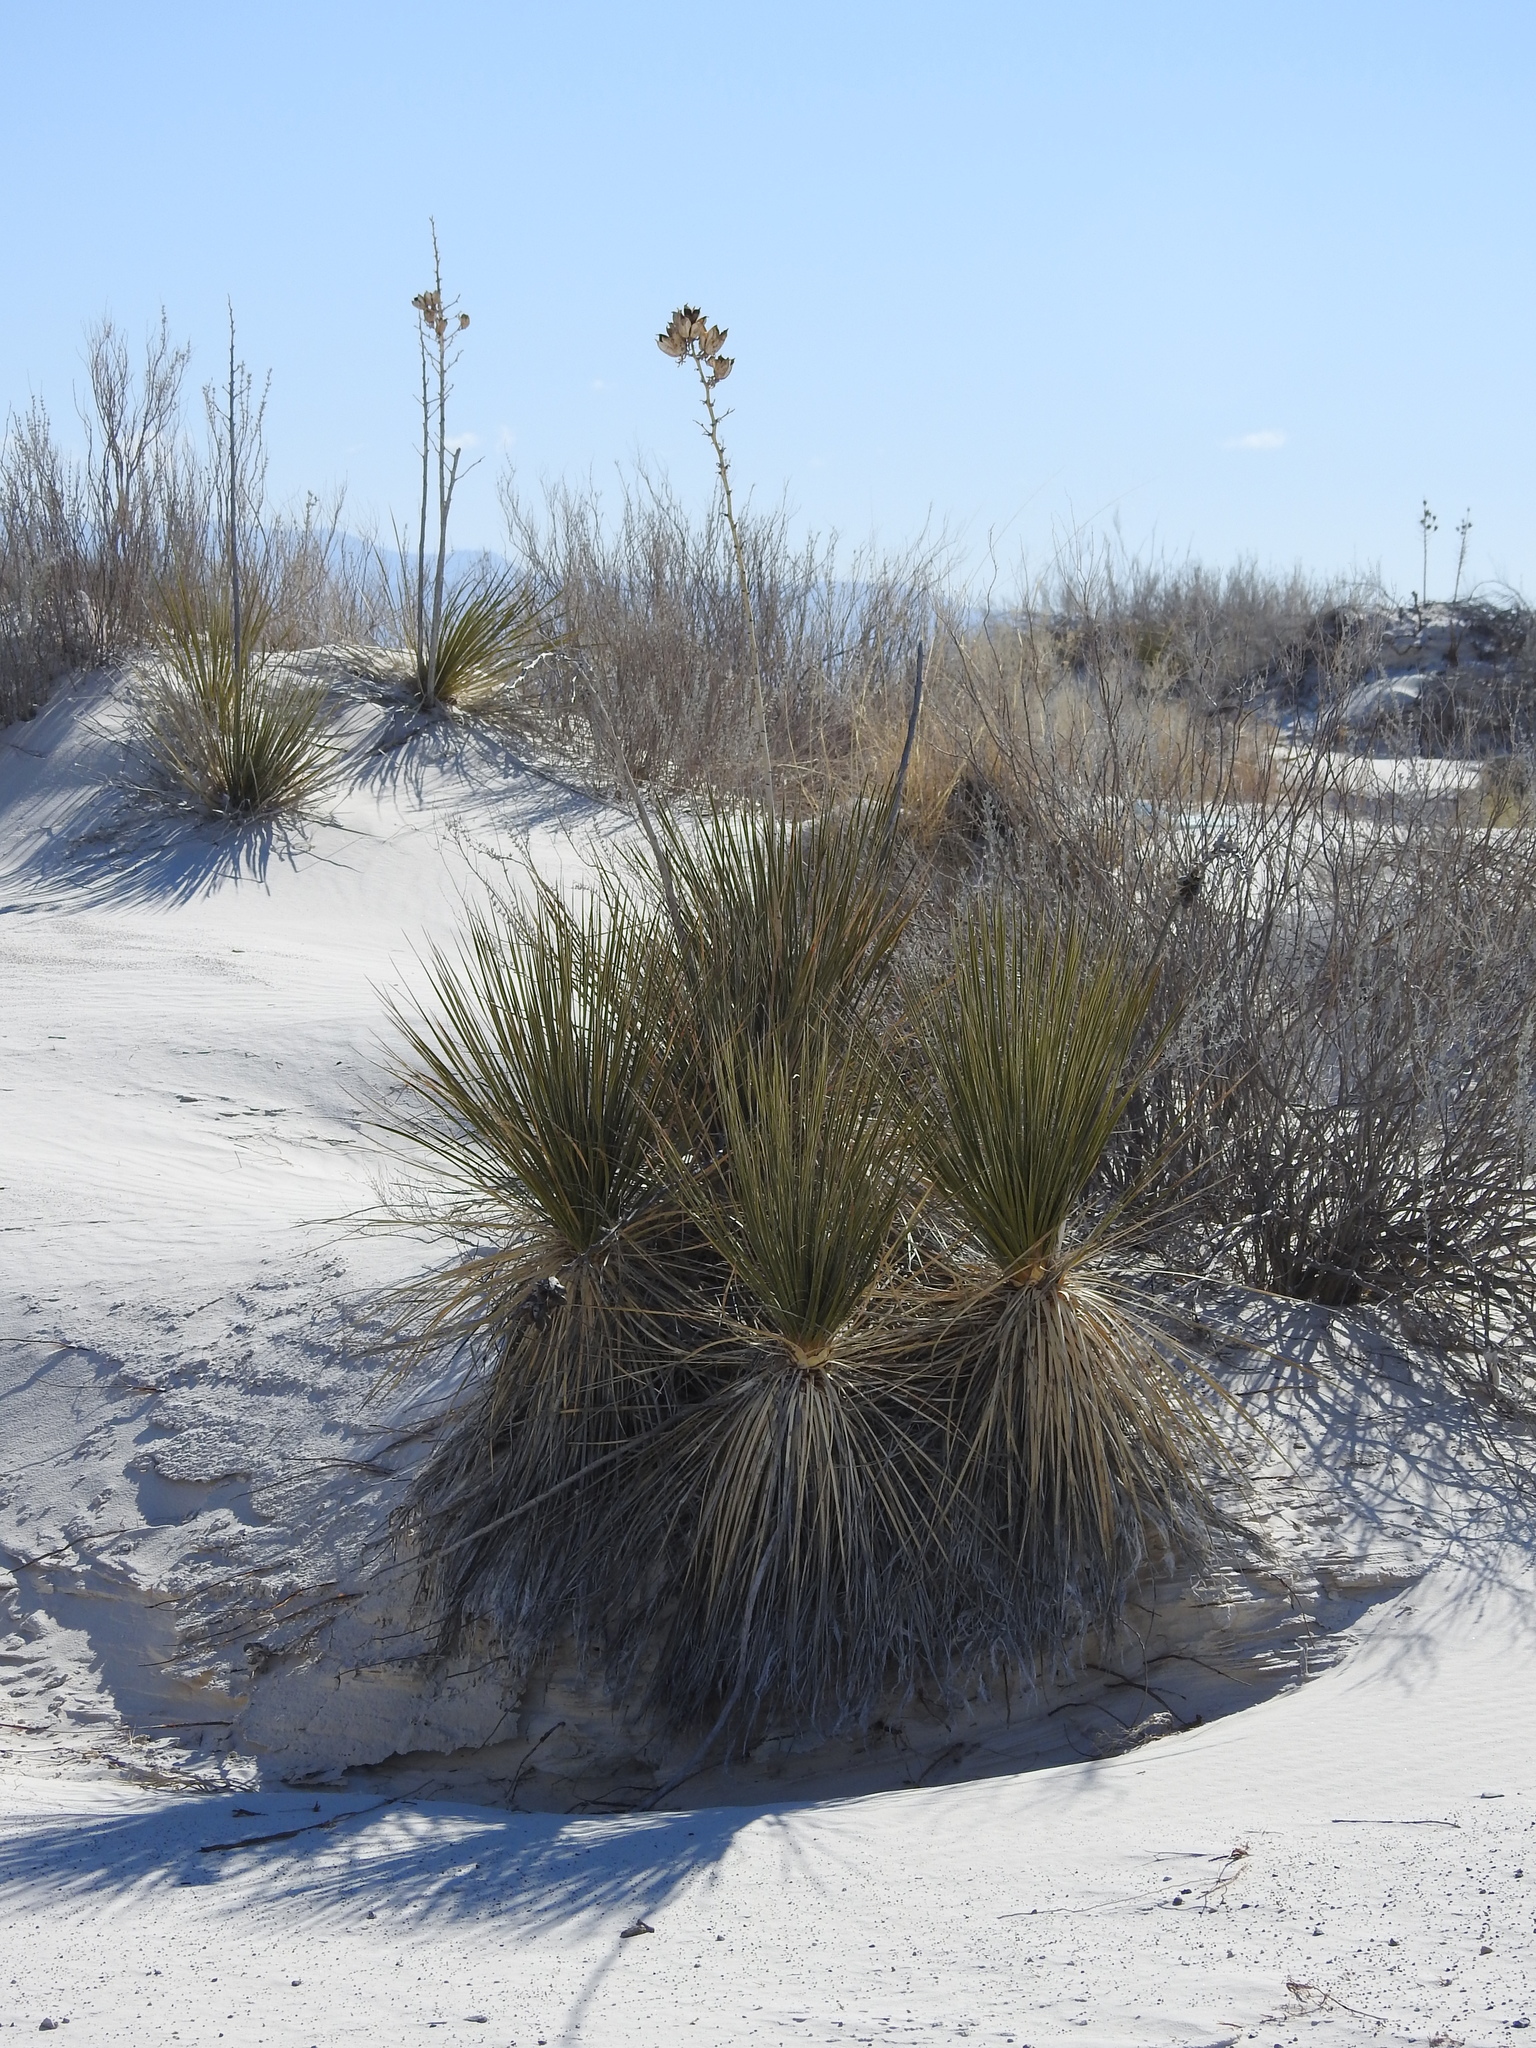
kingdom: Plantae
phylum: Tracheophyta
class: Liliopsida
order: Asparagales
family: Asparagaceae
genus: Yucca
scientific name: Yucca elata
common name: Palmella
